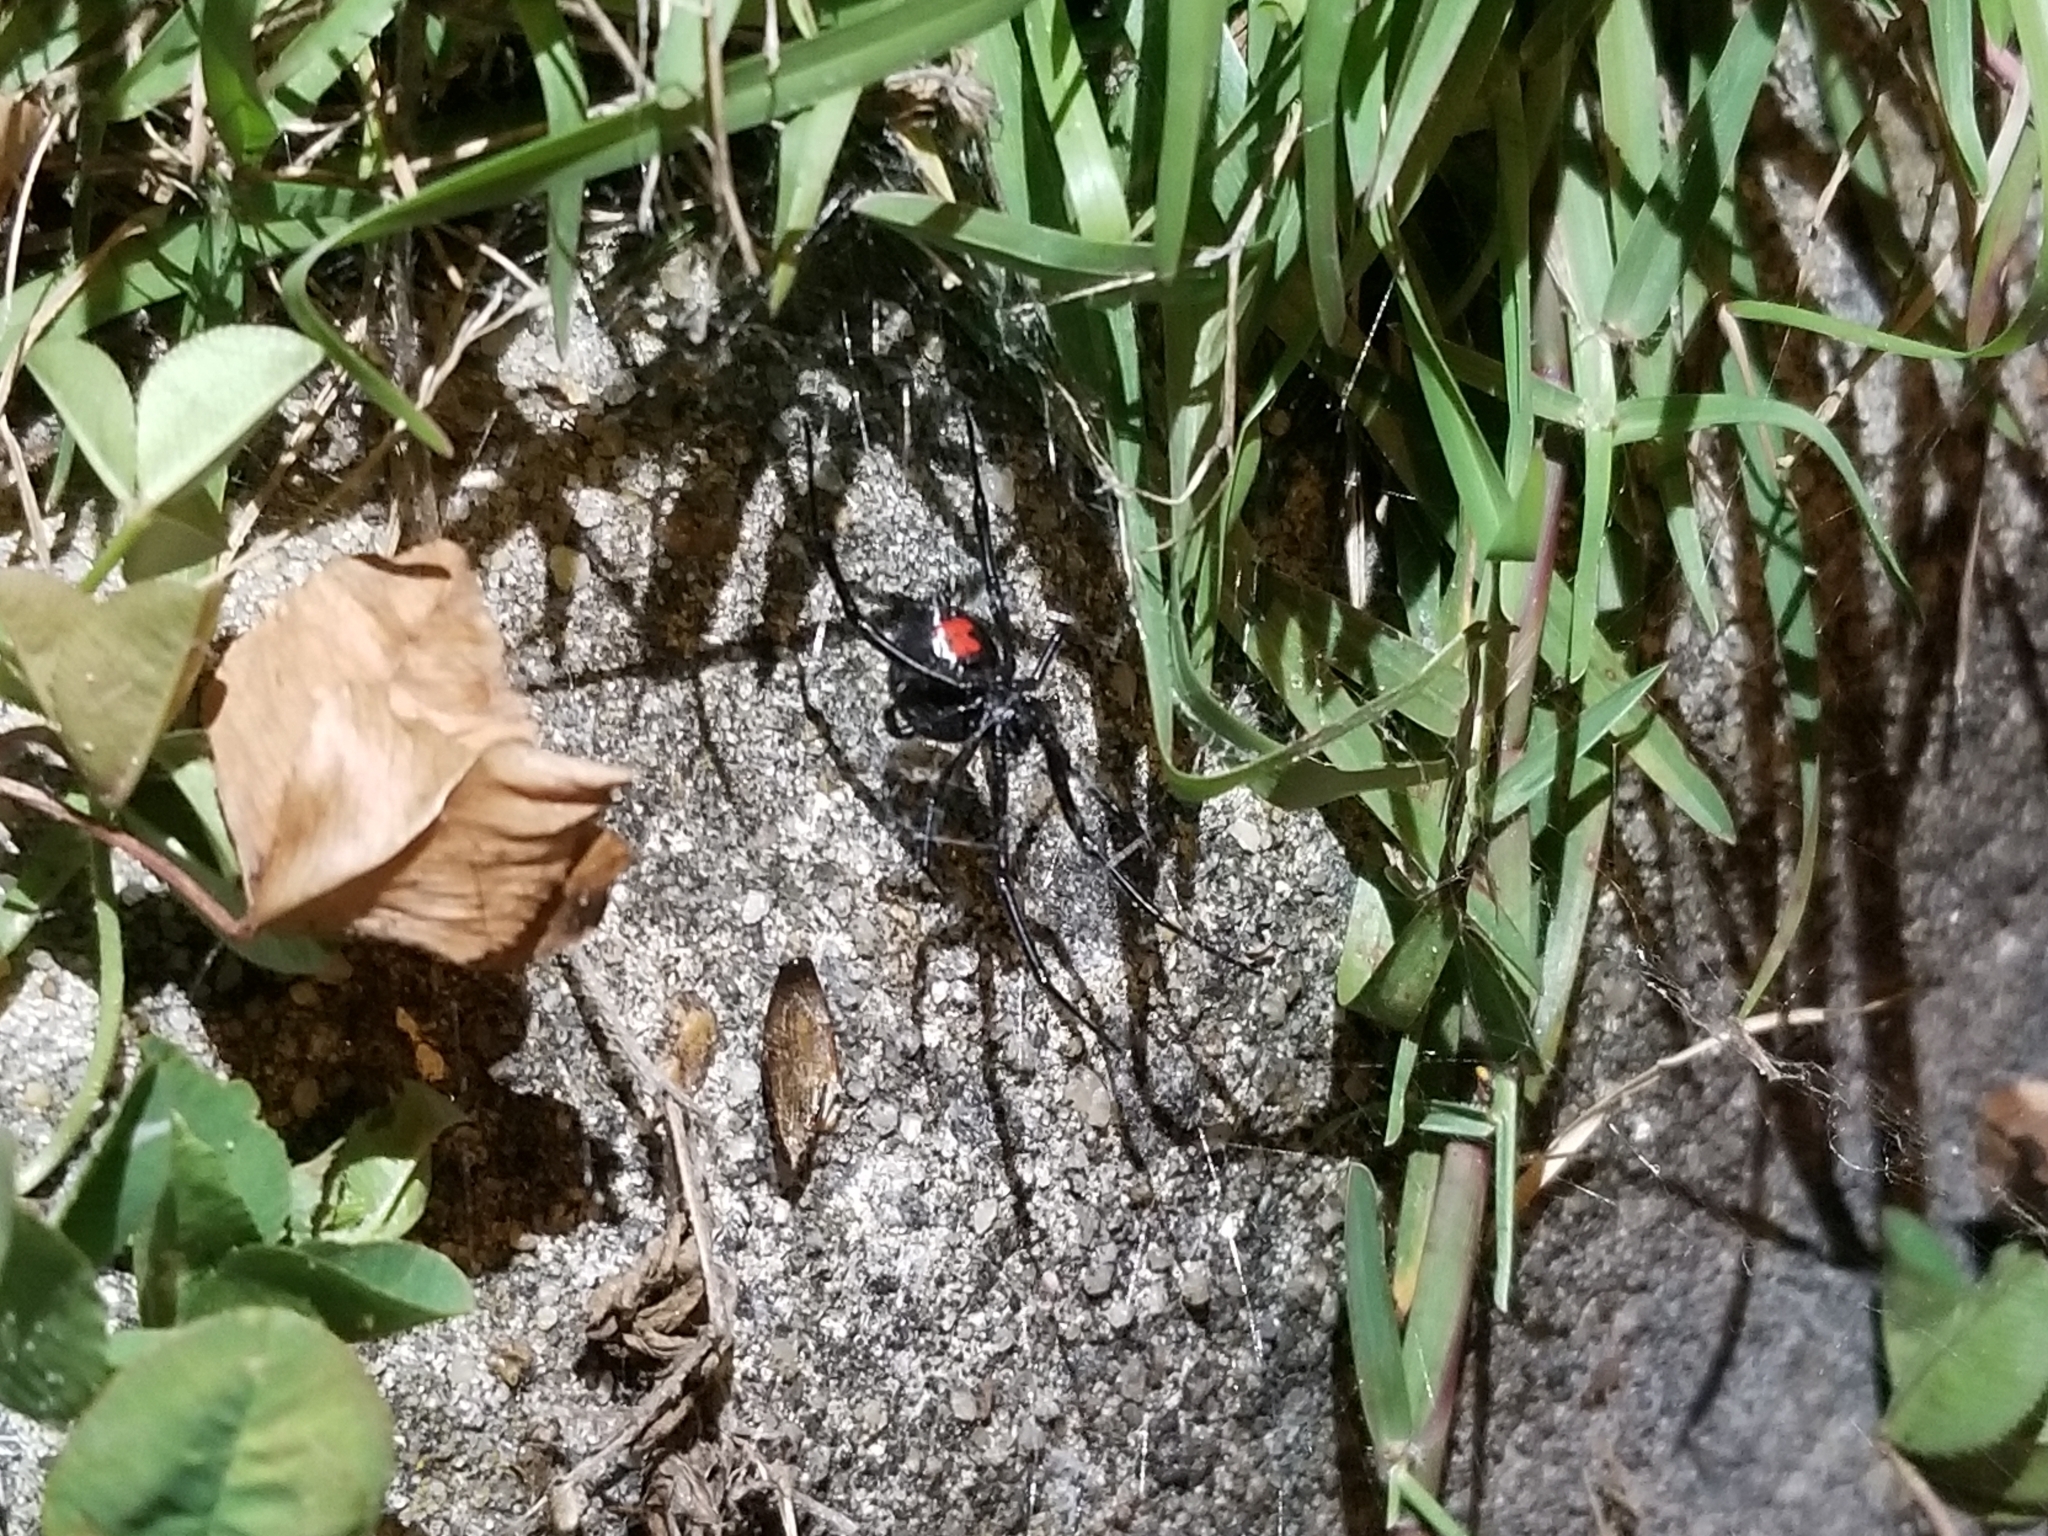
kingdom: Animalia
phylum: Arthropoda
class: Arachnida
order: Araneae
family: Theridiidae
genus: Latrodectus
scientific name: Latrodectus mactans
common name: Cobweb spiders
